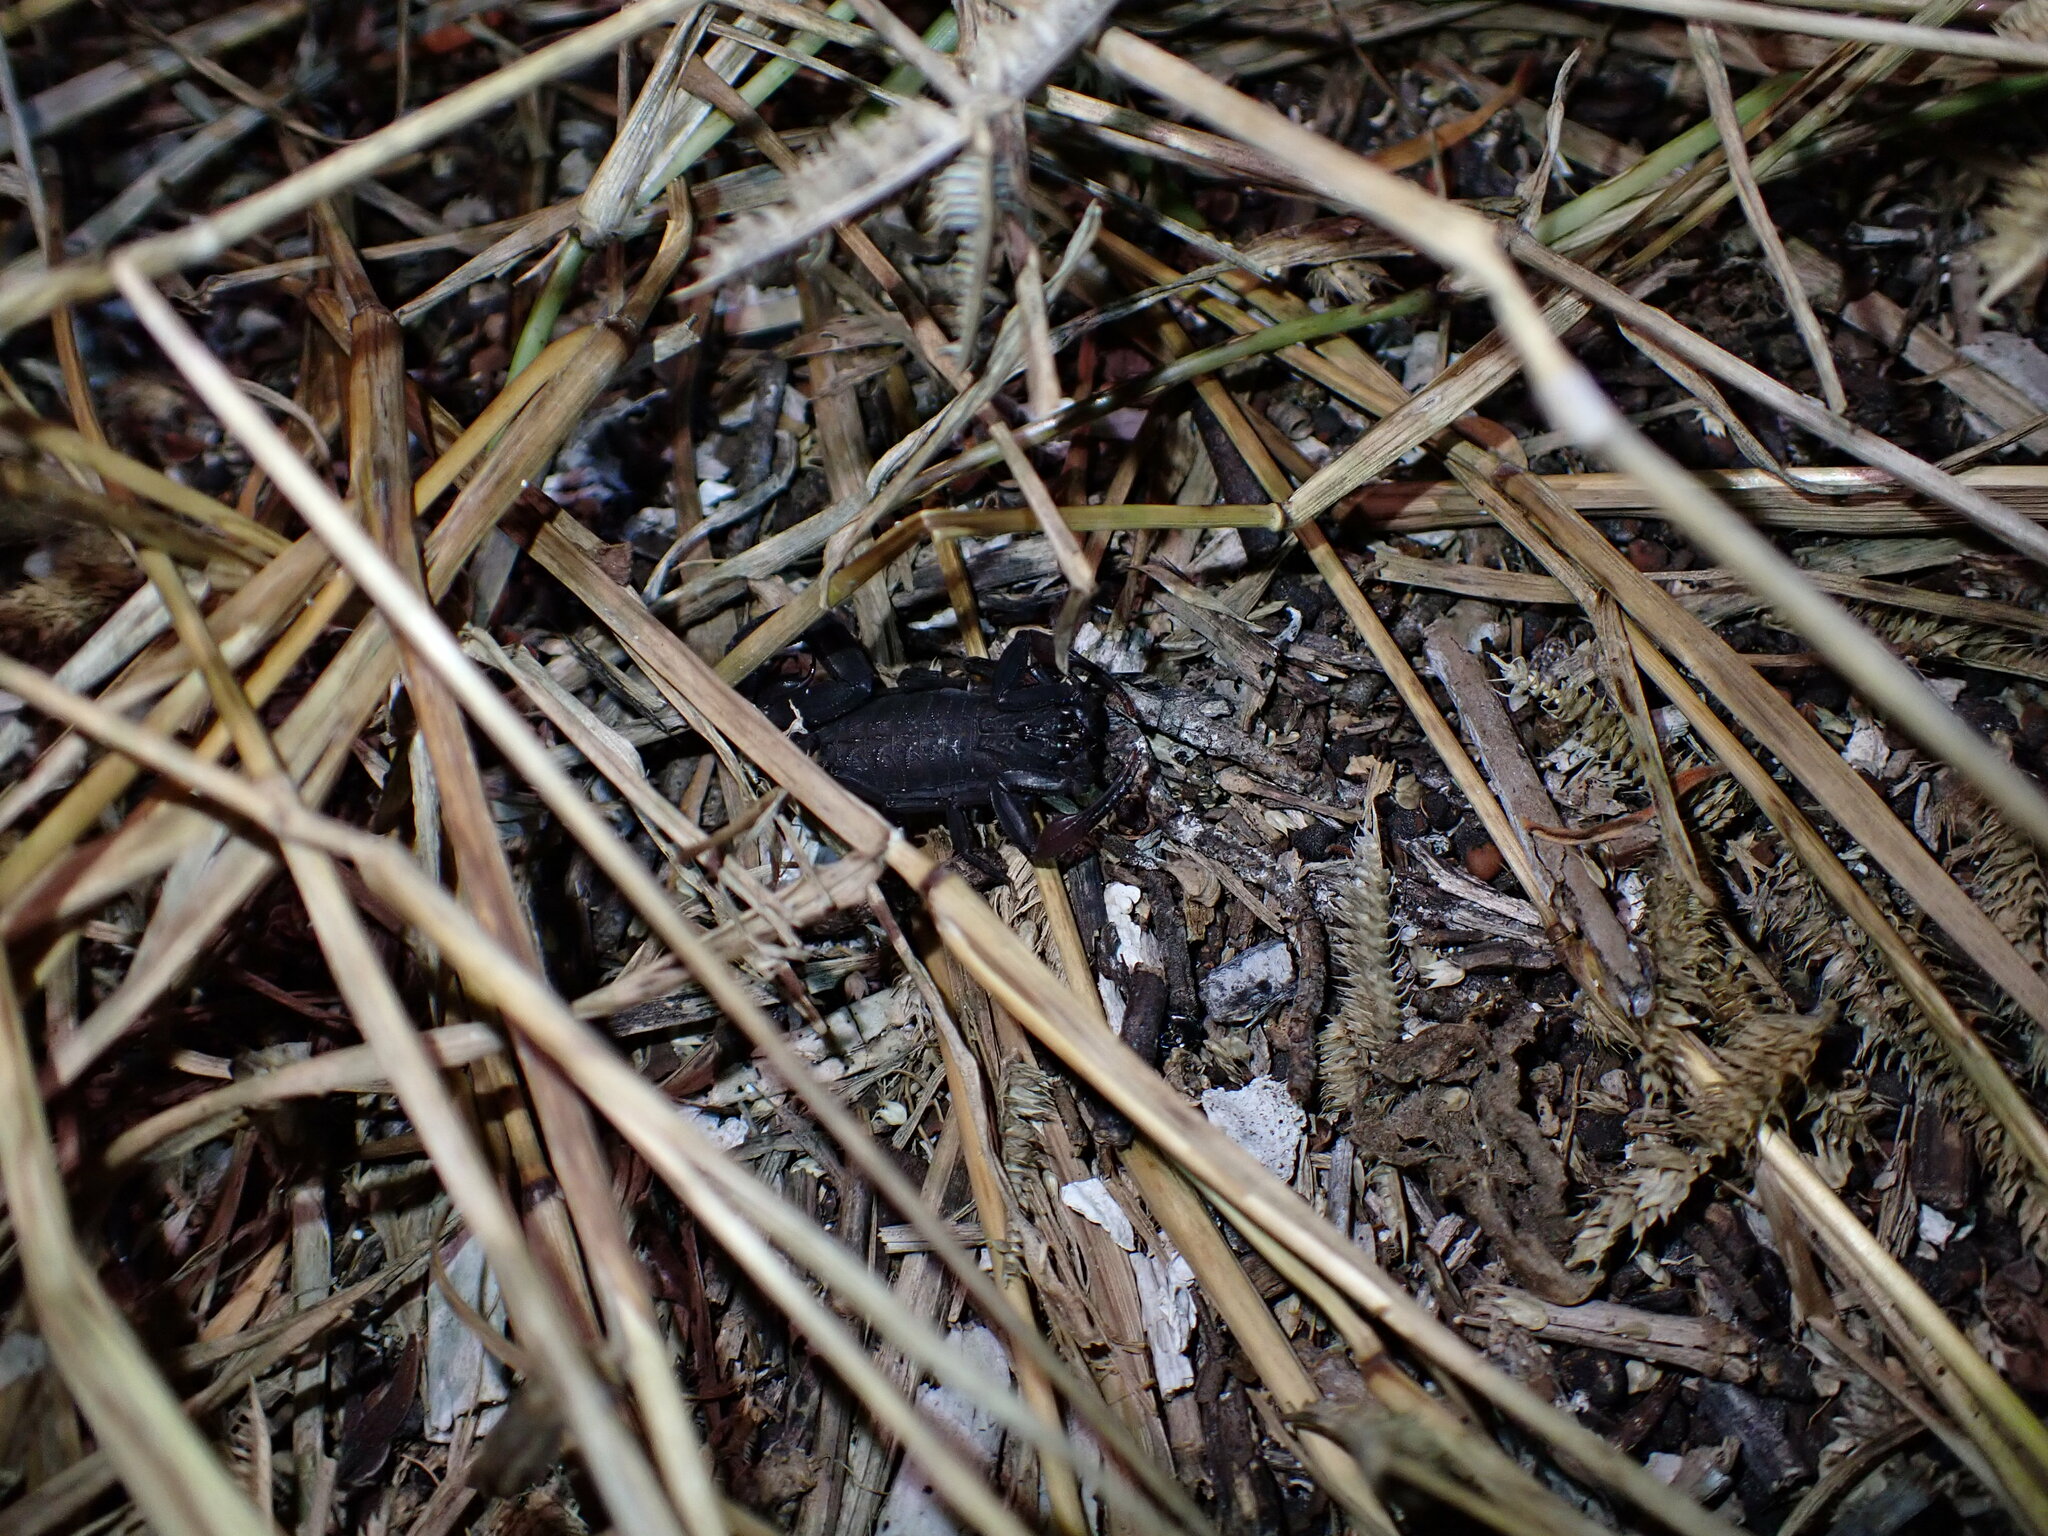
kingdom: Animalia
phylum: Arthropoda
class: Arachnida
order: Scorpiones
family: Buthidae
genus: Centruroides
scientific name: Centruroides gracilis
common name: Scorpions
